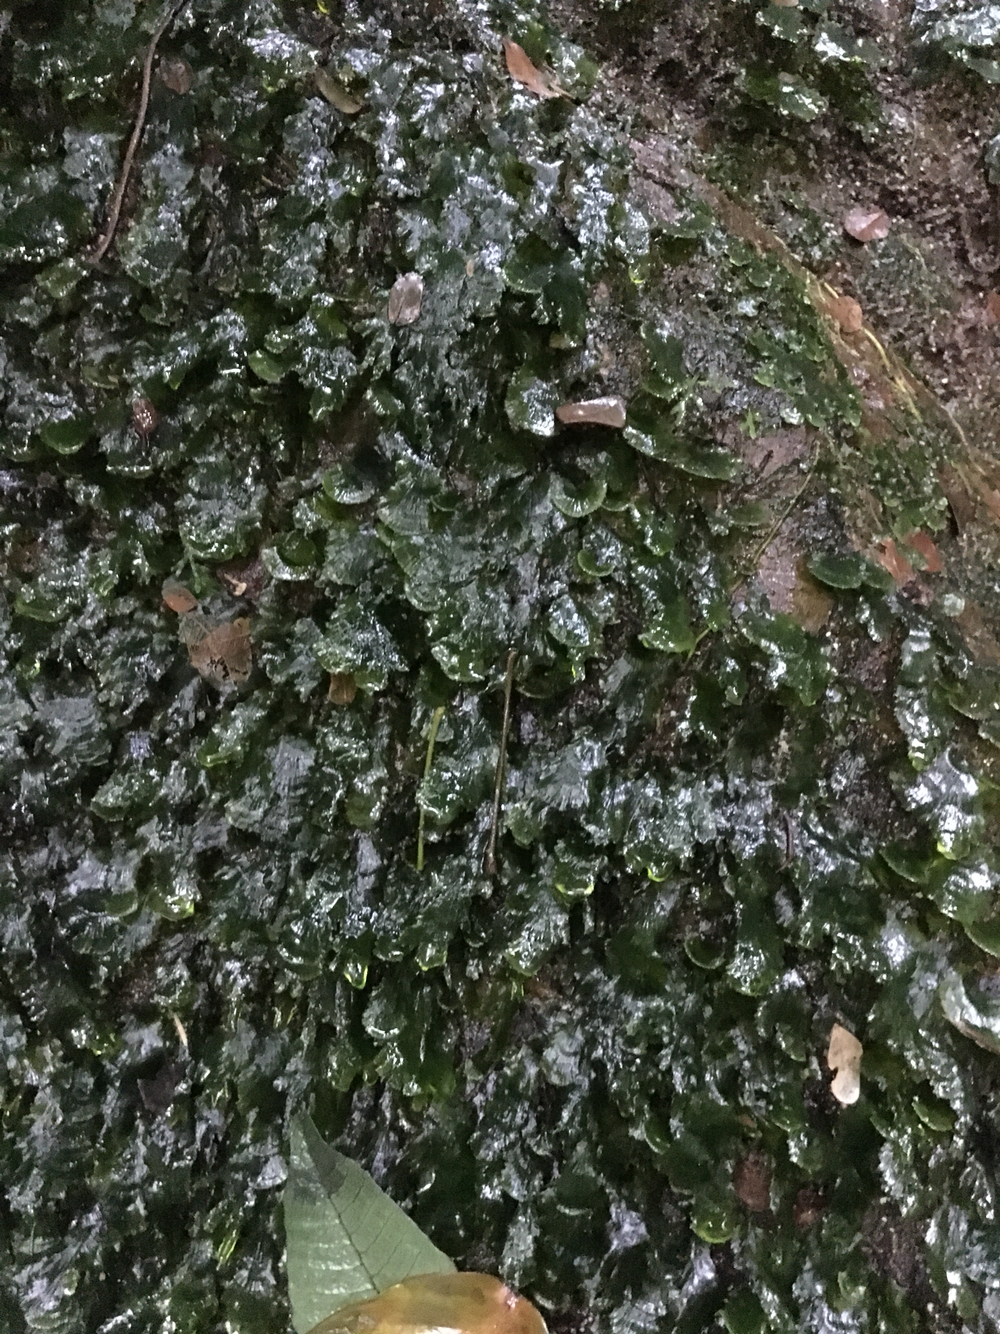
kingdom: Plantae
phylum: Tracheophyta
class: Polypodiopsida
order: Hymenophyllales
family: Hymenophyllaceae
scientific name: Hymenophyllaceae
